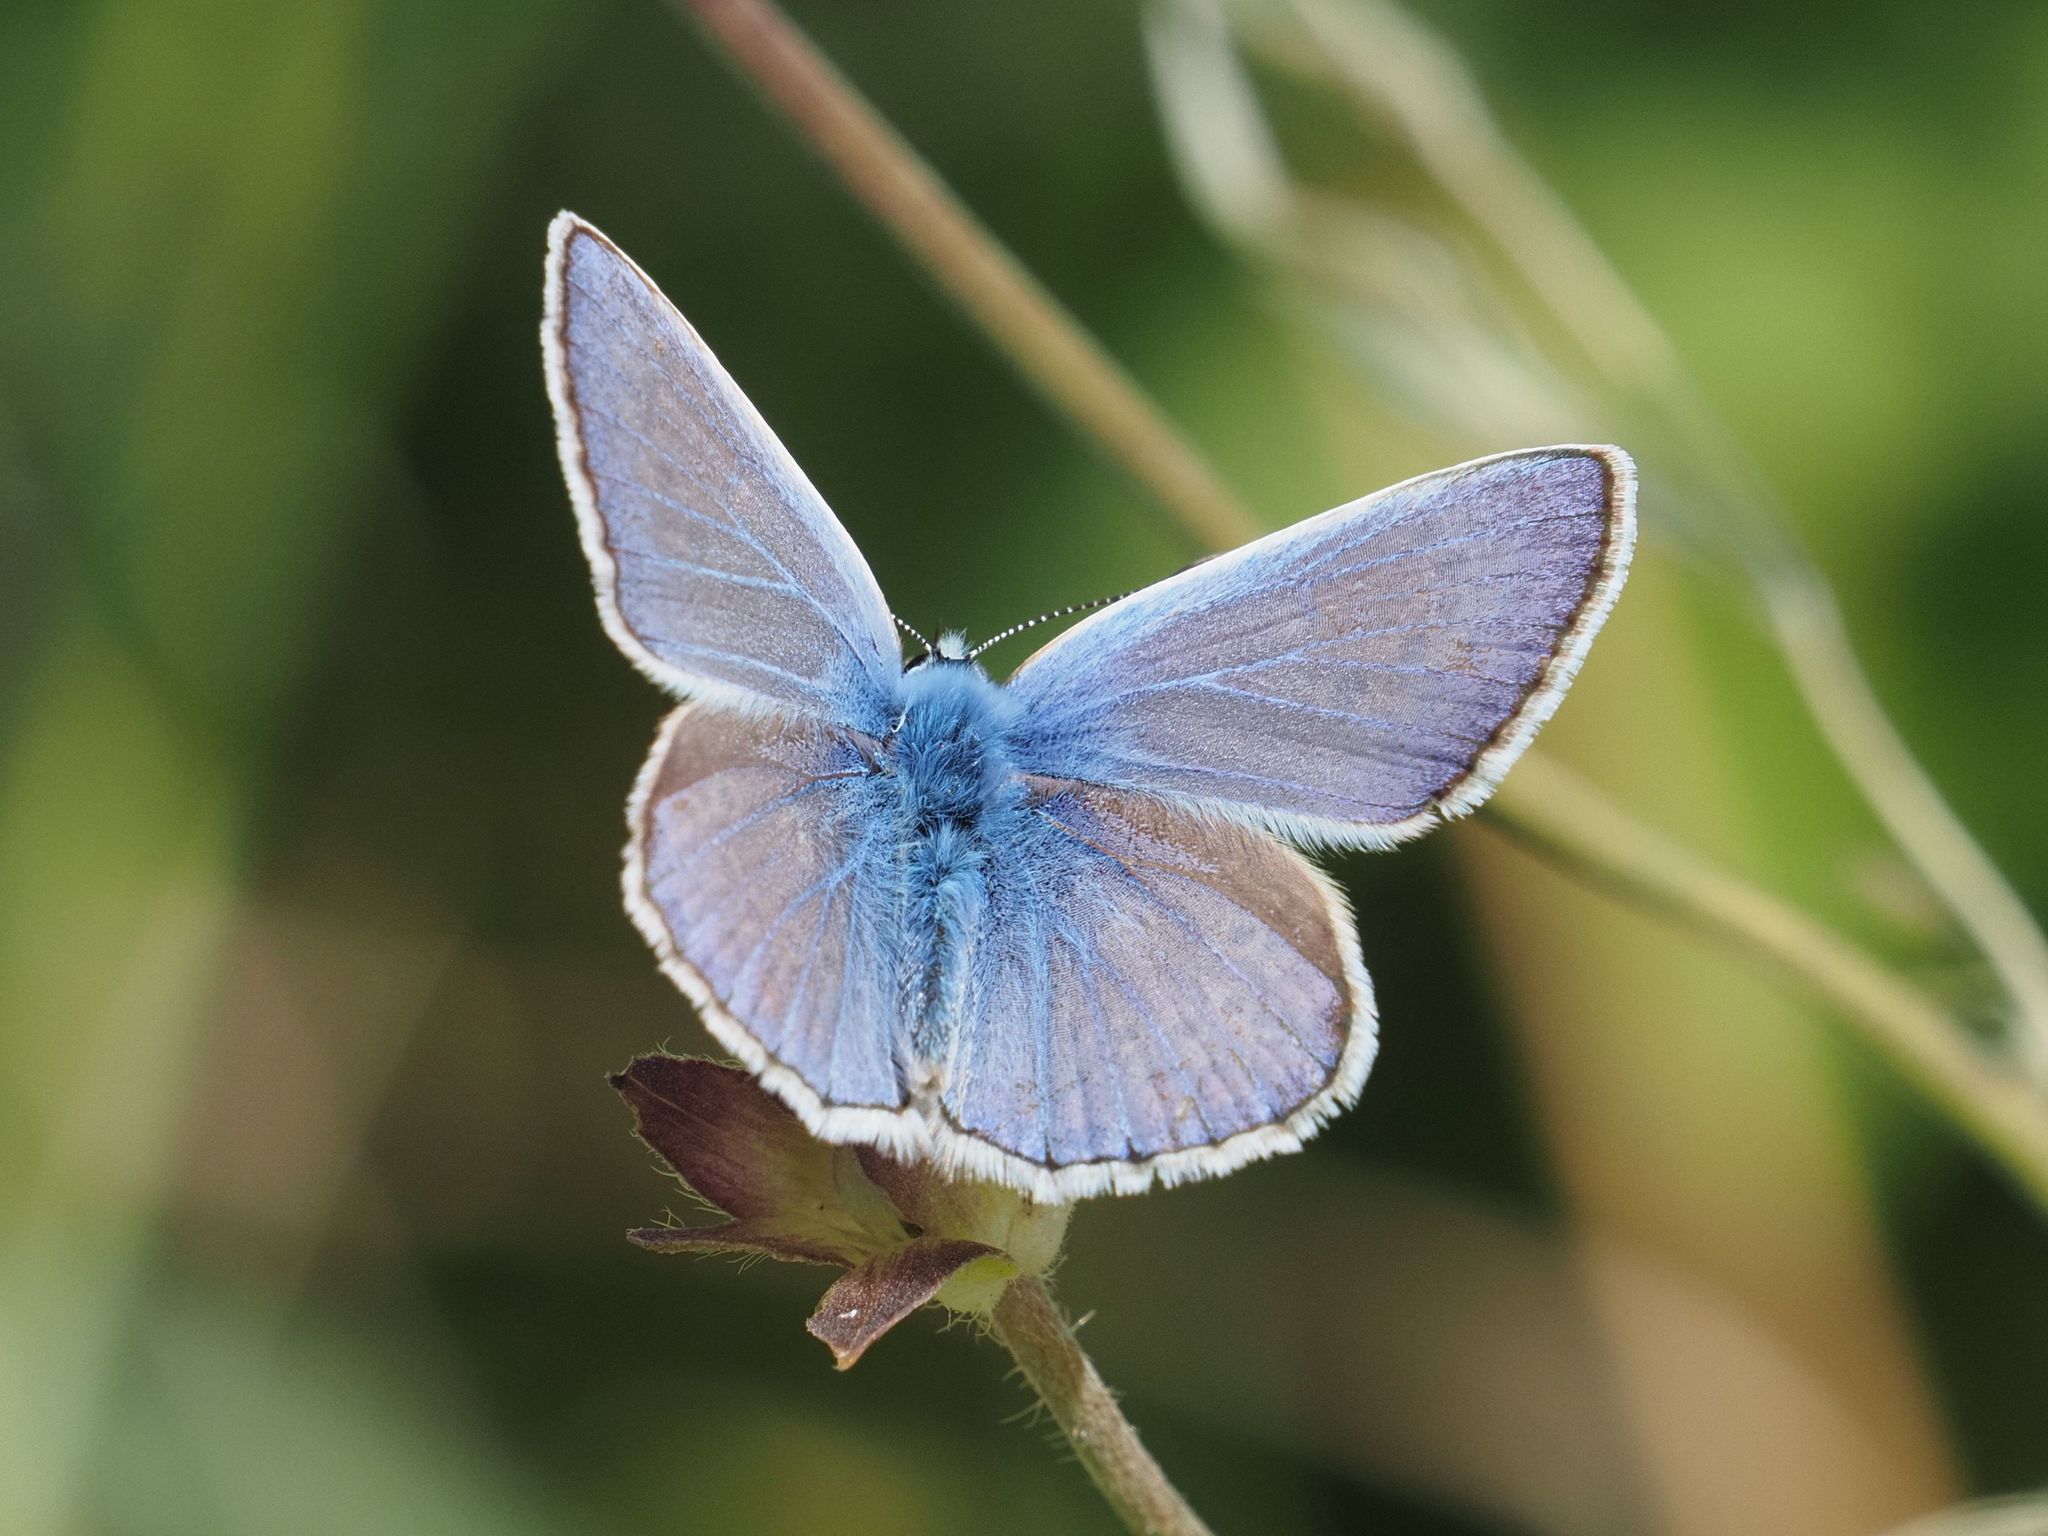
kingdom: Animalia
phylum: Arthropoda
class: Insecta
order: Lepidoptera
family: Lycaenidae
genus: Polyommatus
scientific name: Polyommatus icarus
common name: Common blue
